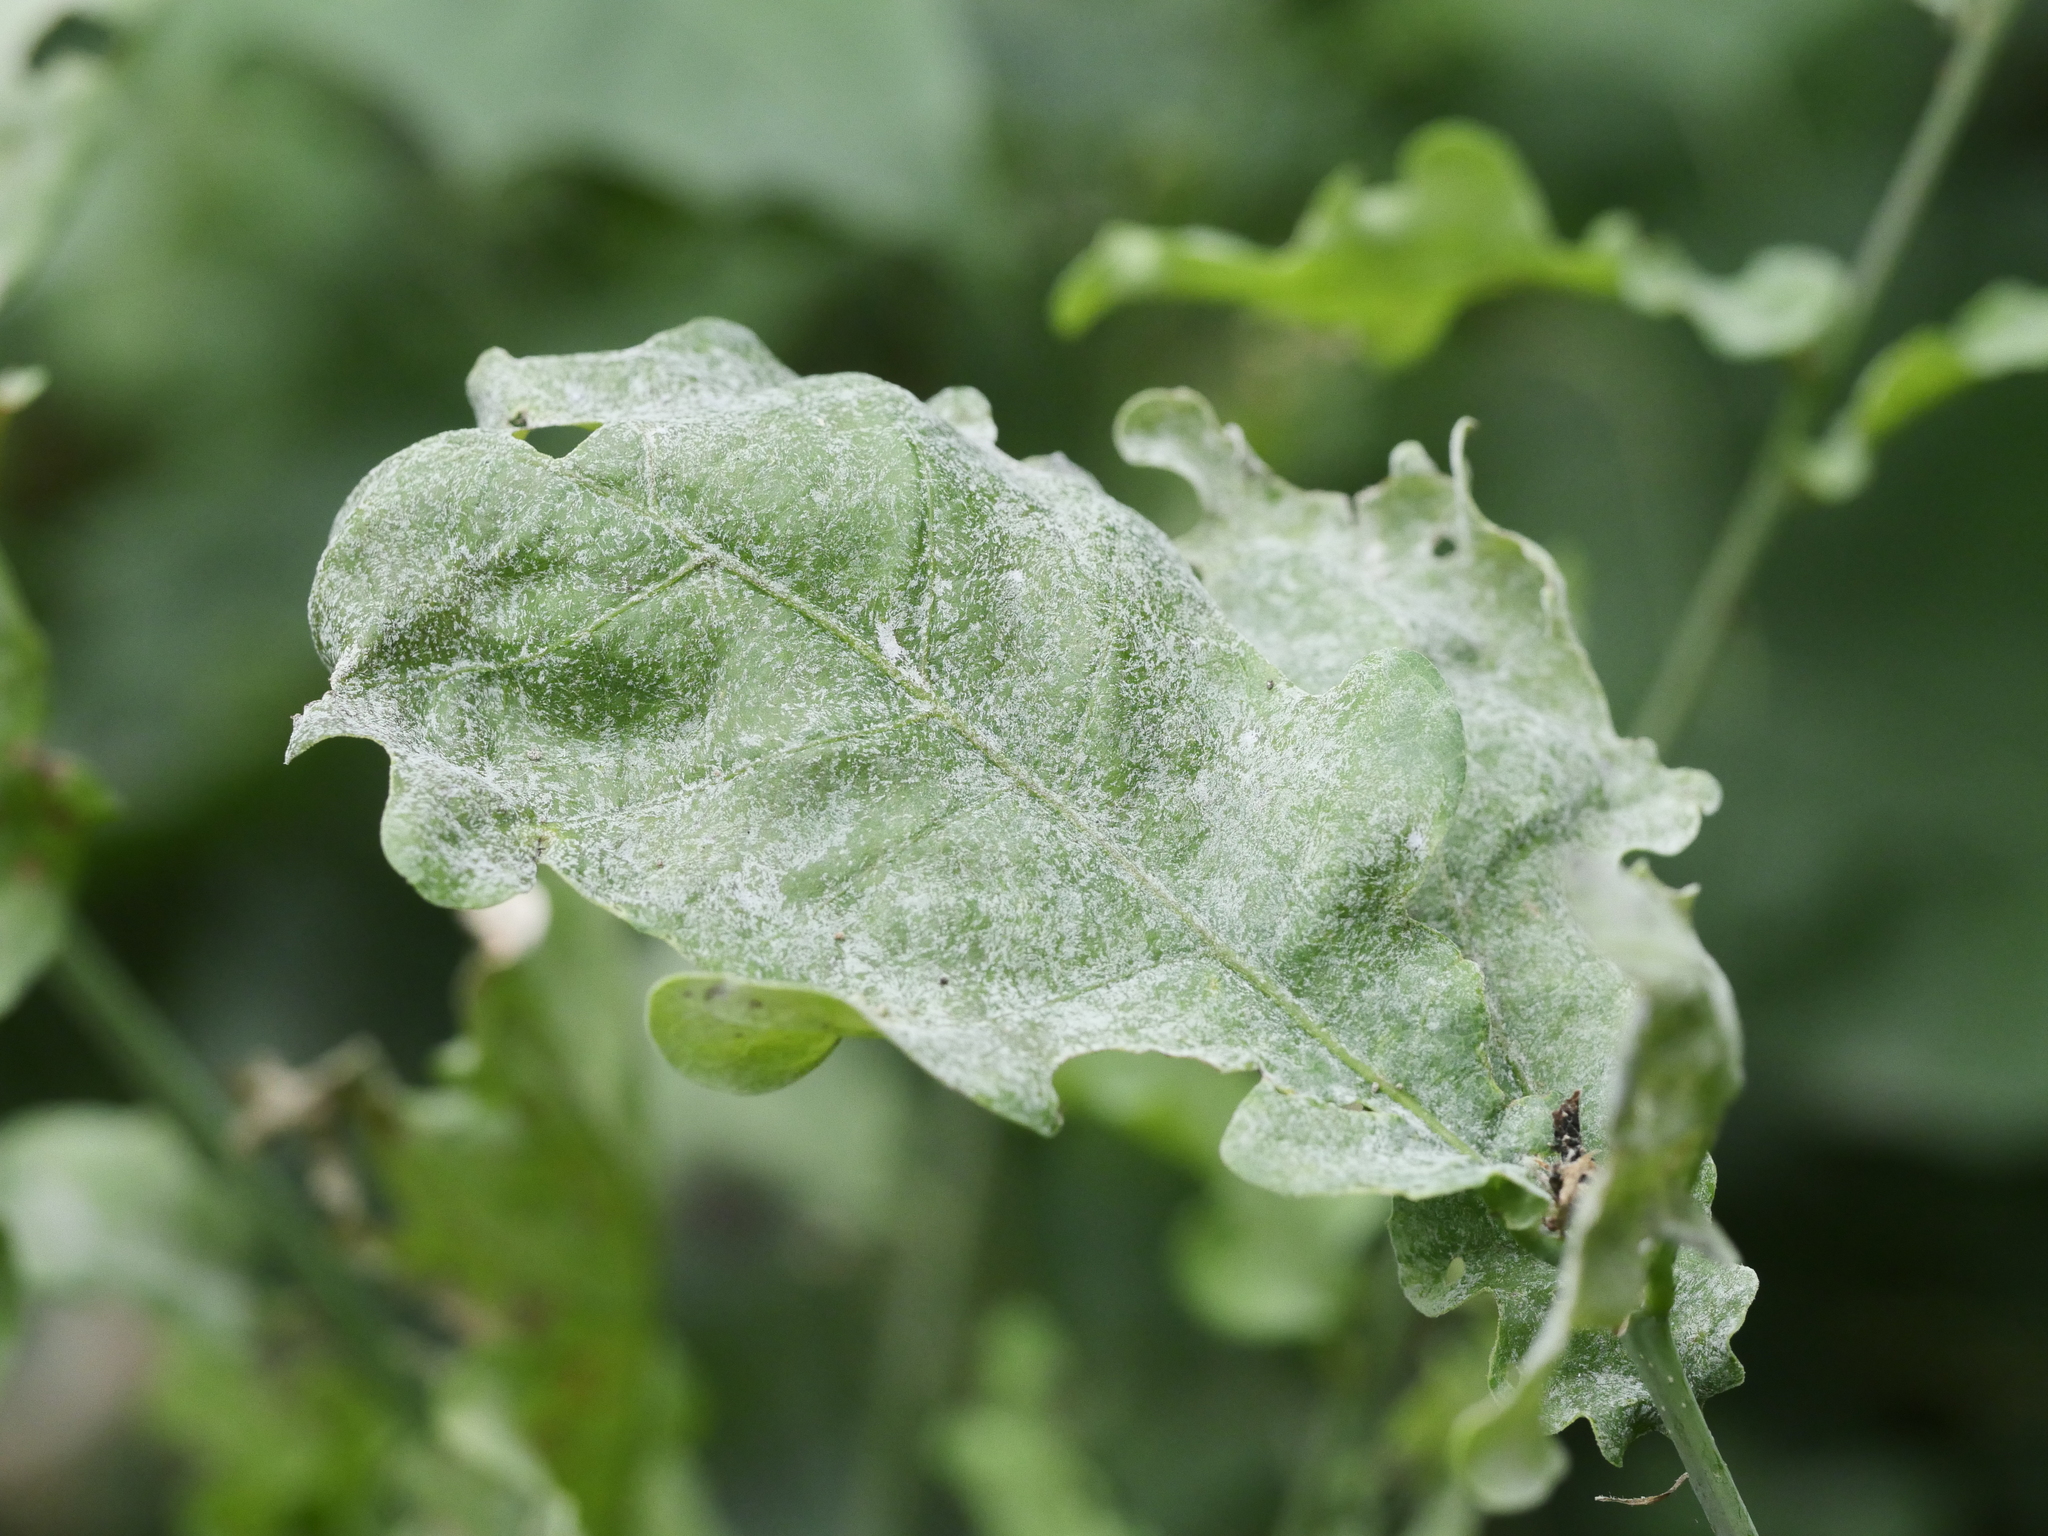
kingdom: Fungi
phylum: Ascomycota
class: Leotiomycetes
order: Helotiales
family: Erysiphaceae
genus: Erysiphe
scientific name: Erysiphe
